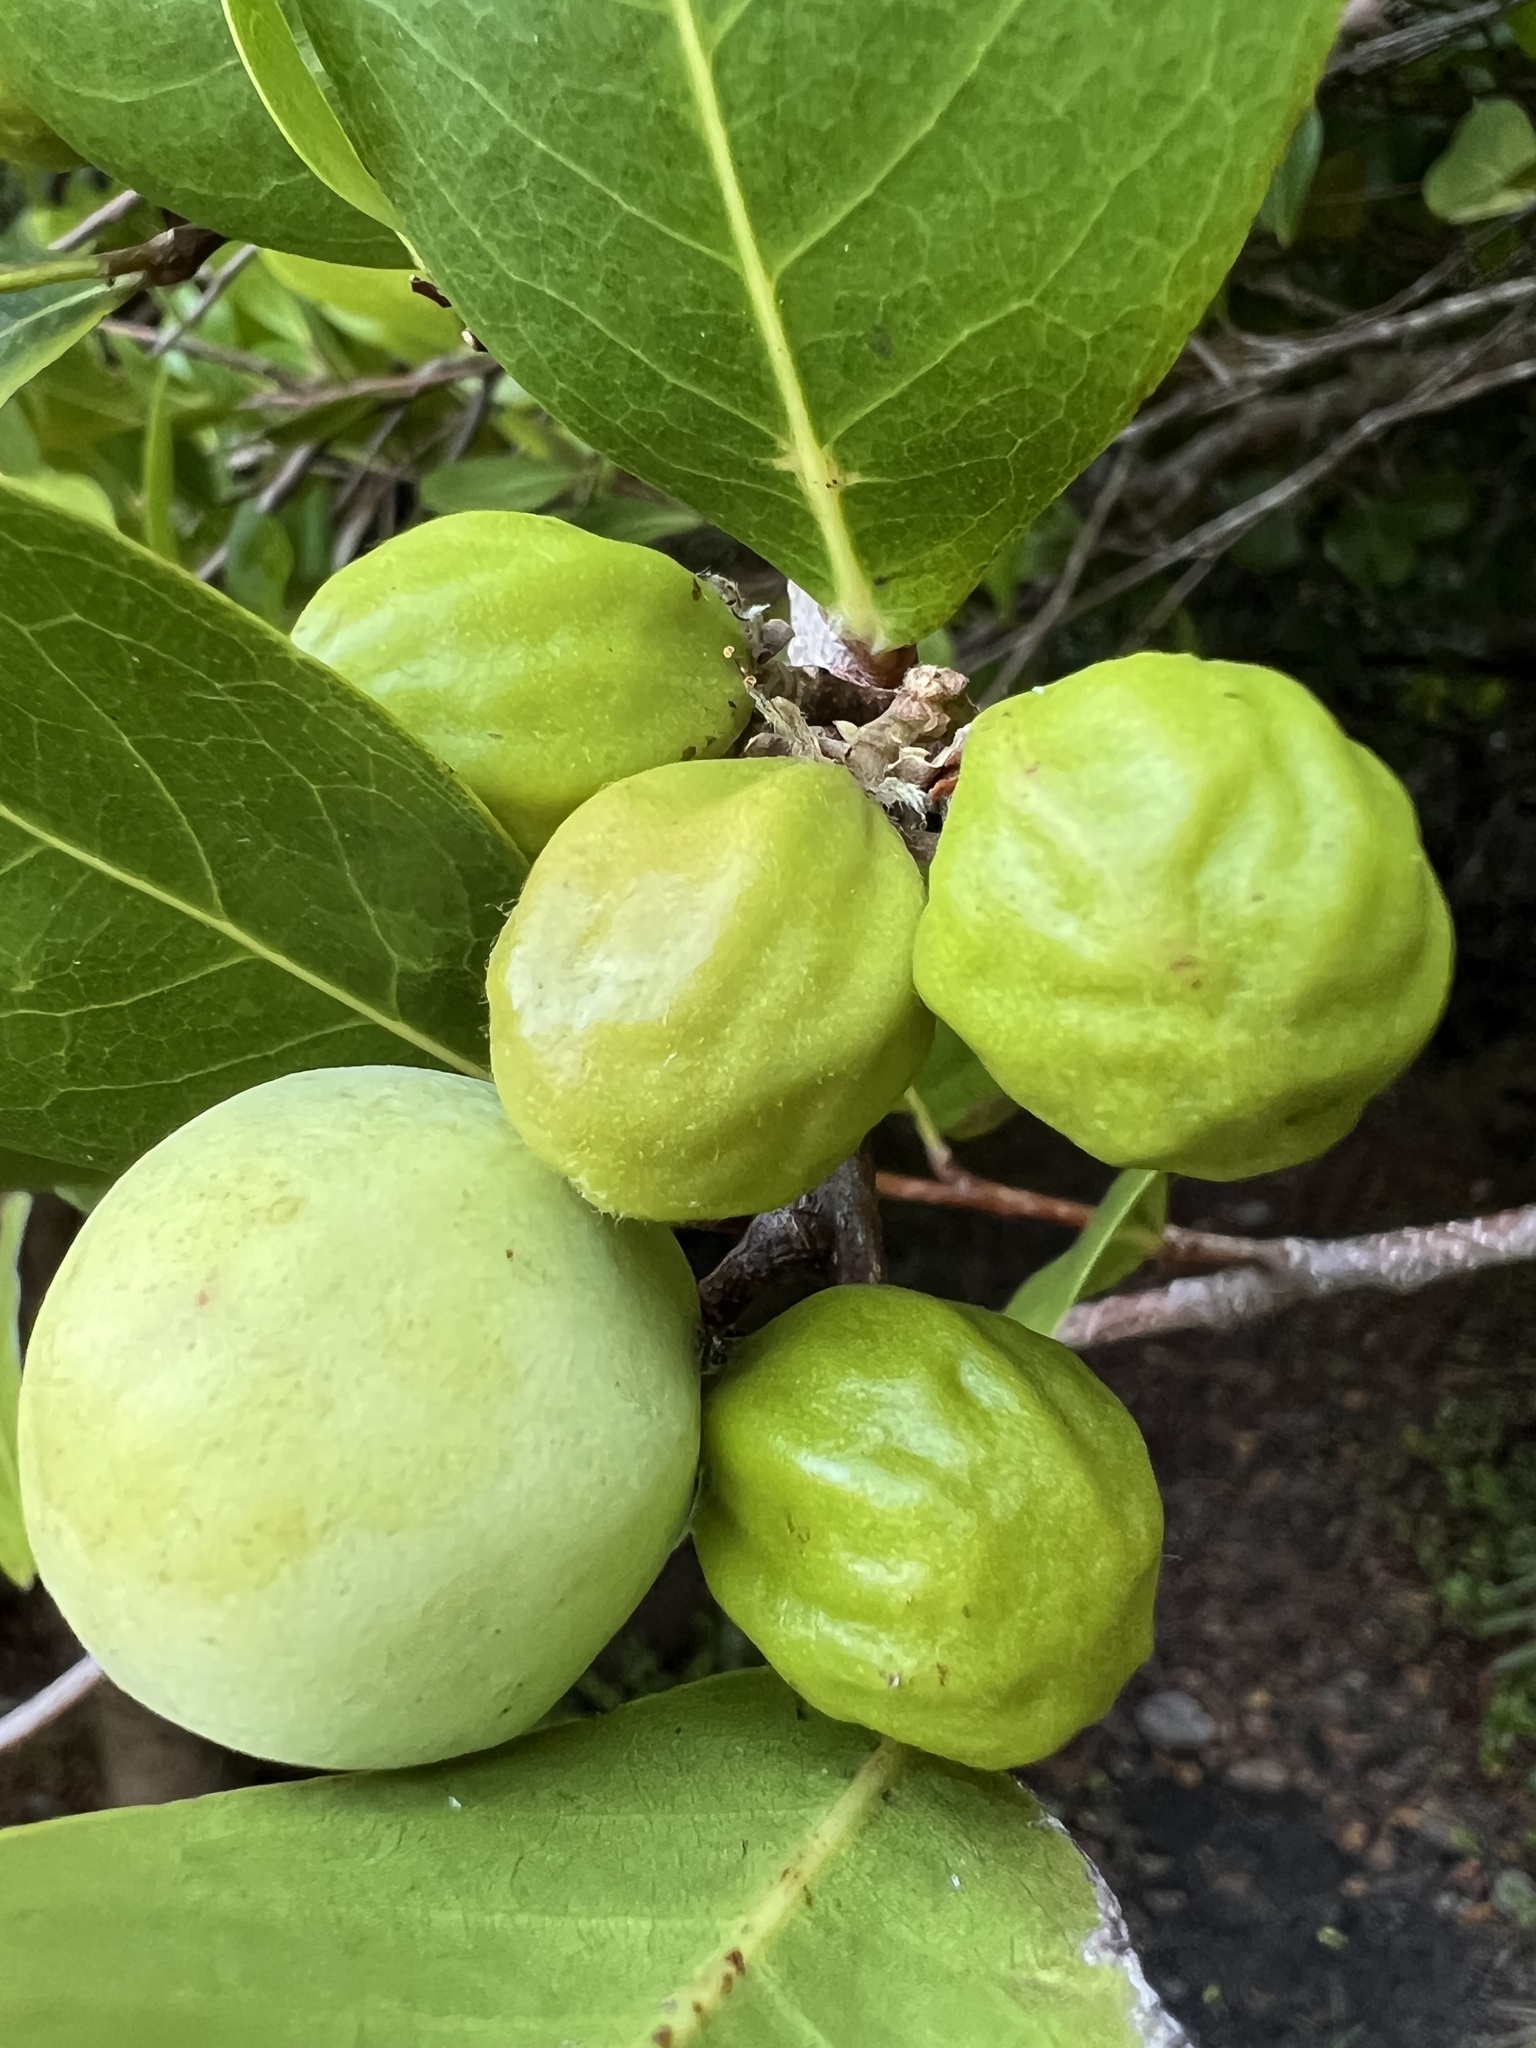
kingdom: Plantae
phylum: Tracheophyta
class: Magnoliopsida
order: Malpighiales
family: Chrysobalanaceae
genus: Chrysobalanus
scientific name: Chrysobalanus icaco
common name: Coco plum
